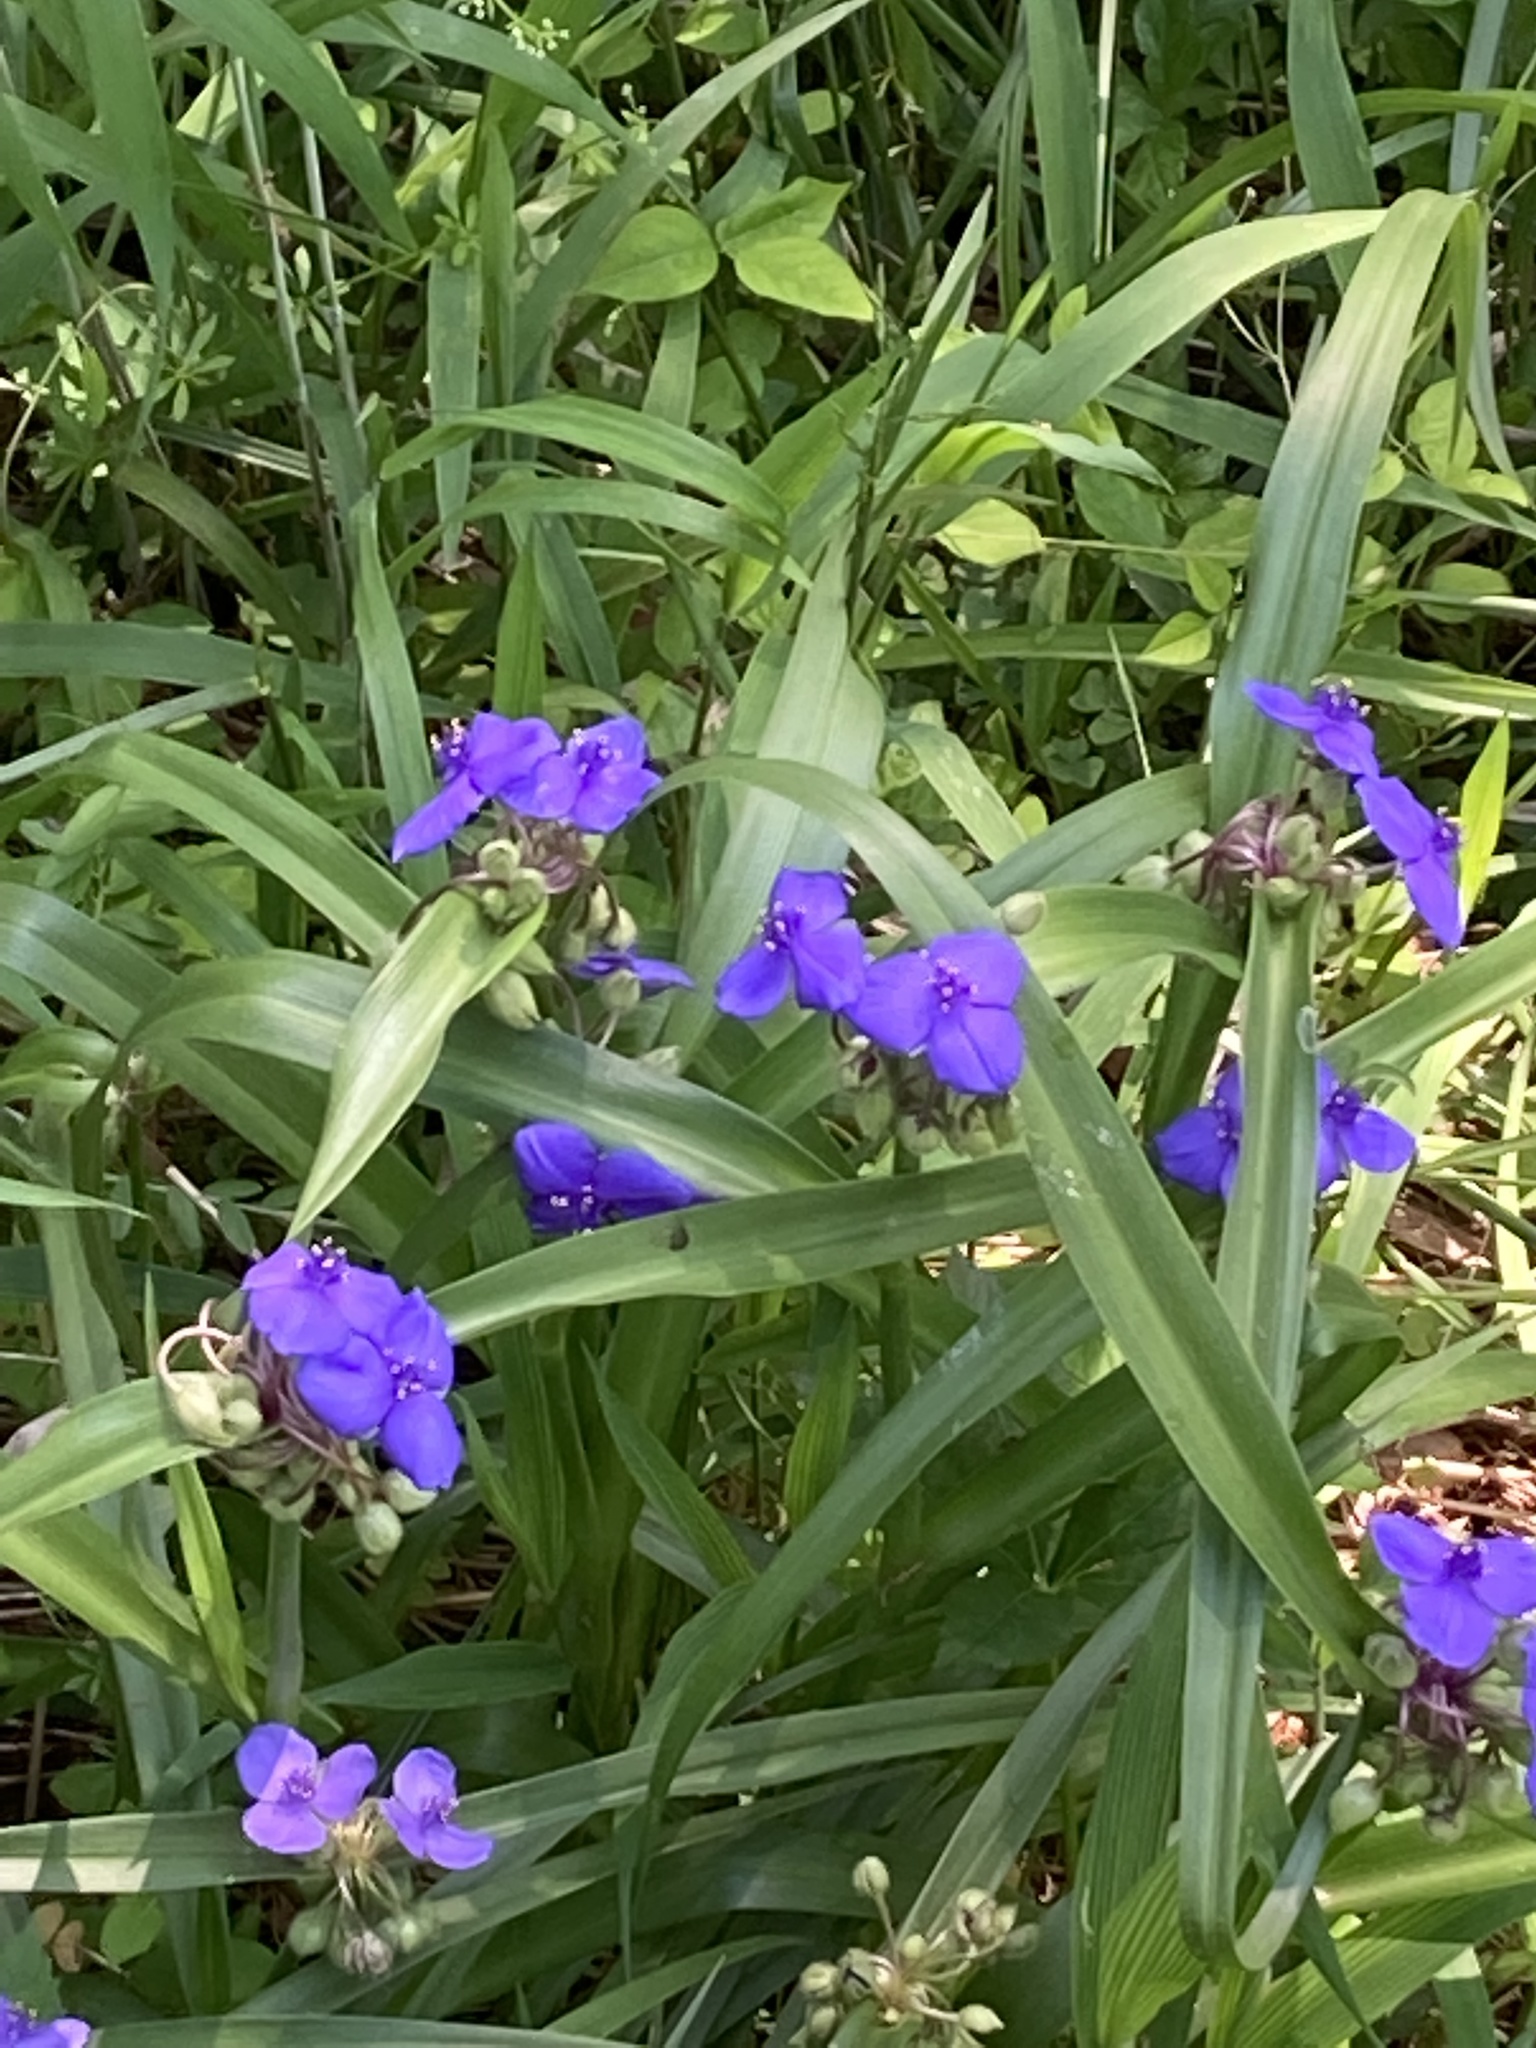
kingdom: Plantae
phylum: Tracheophyta
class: Liliopsida
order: Commelinales
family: Commelinaceae
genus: Tradescantia
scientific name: Tradescantia virginiana
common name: Spiderwort
